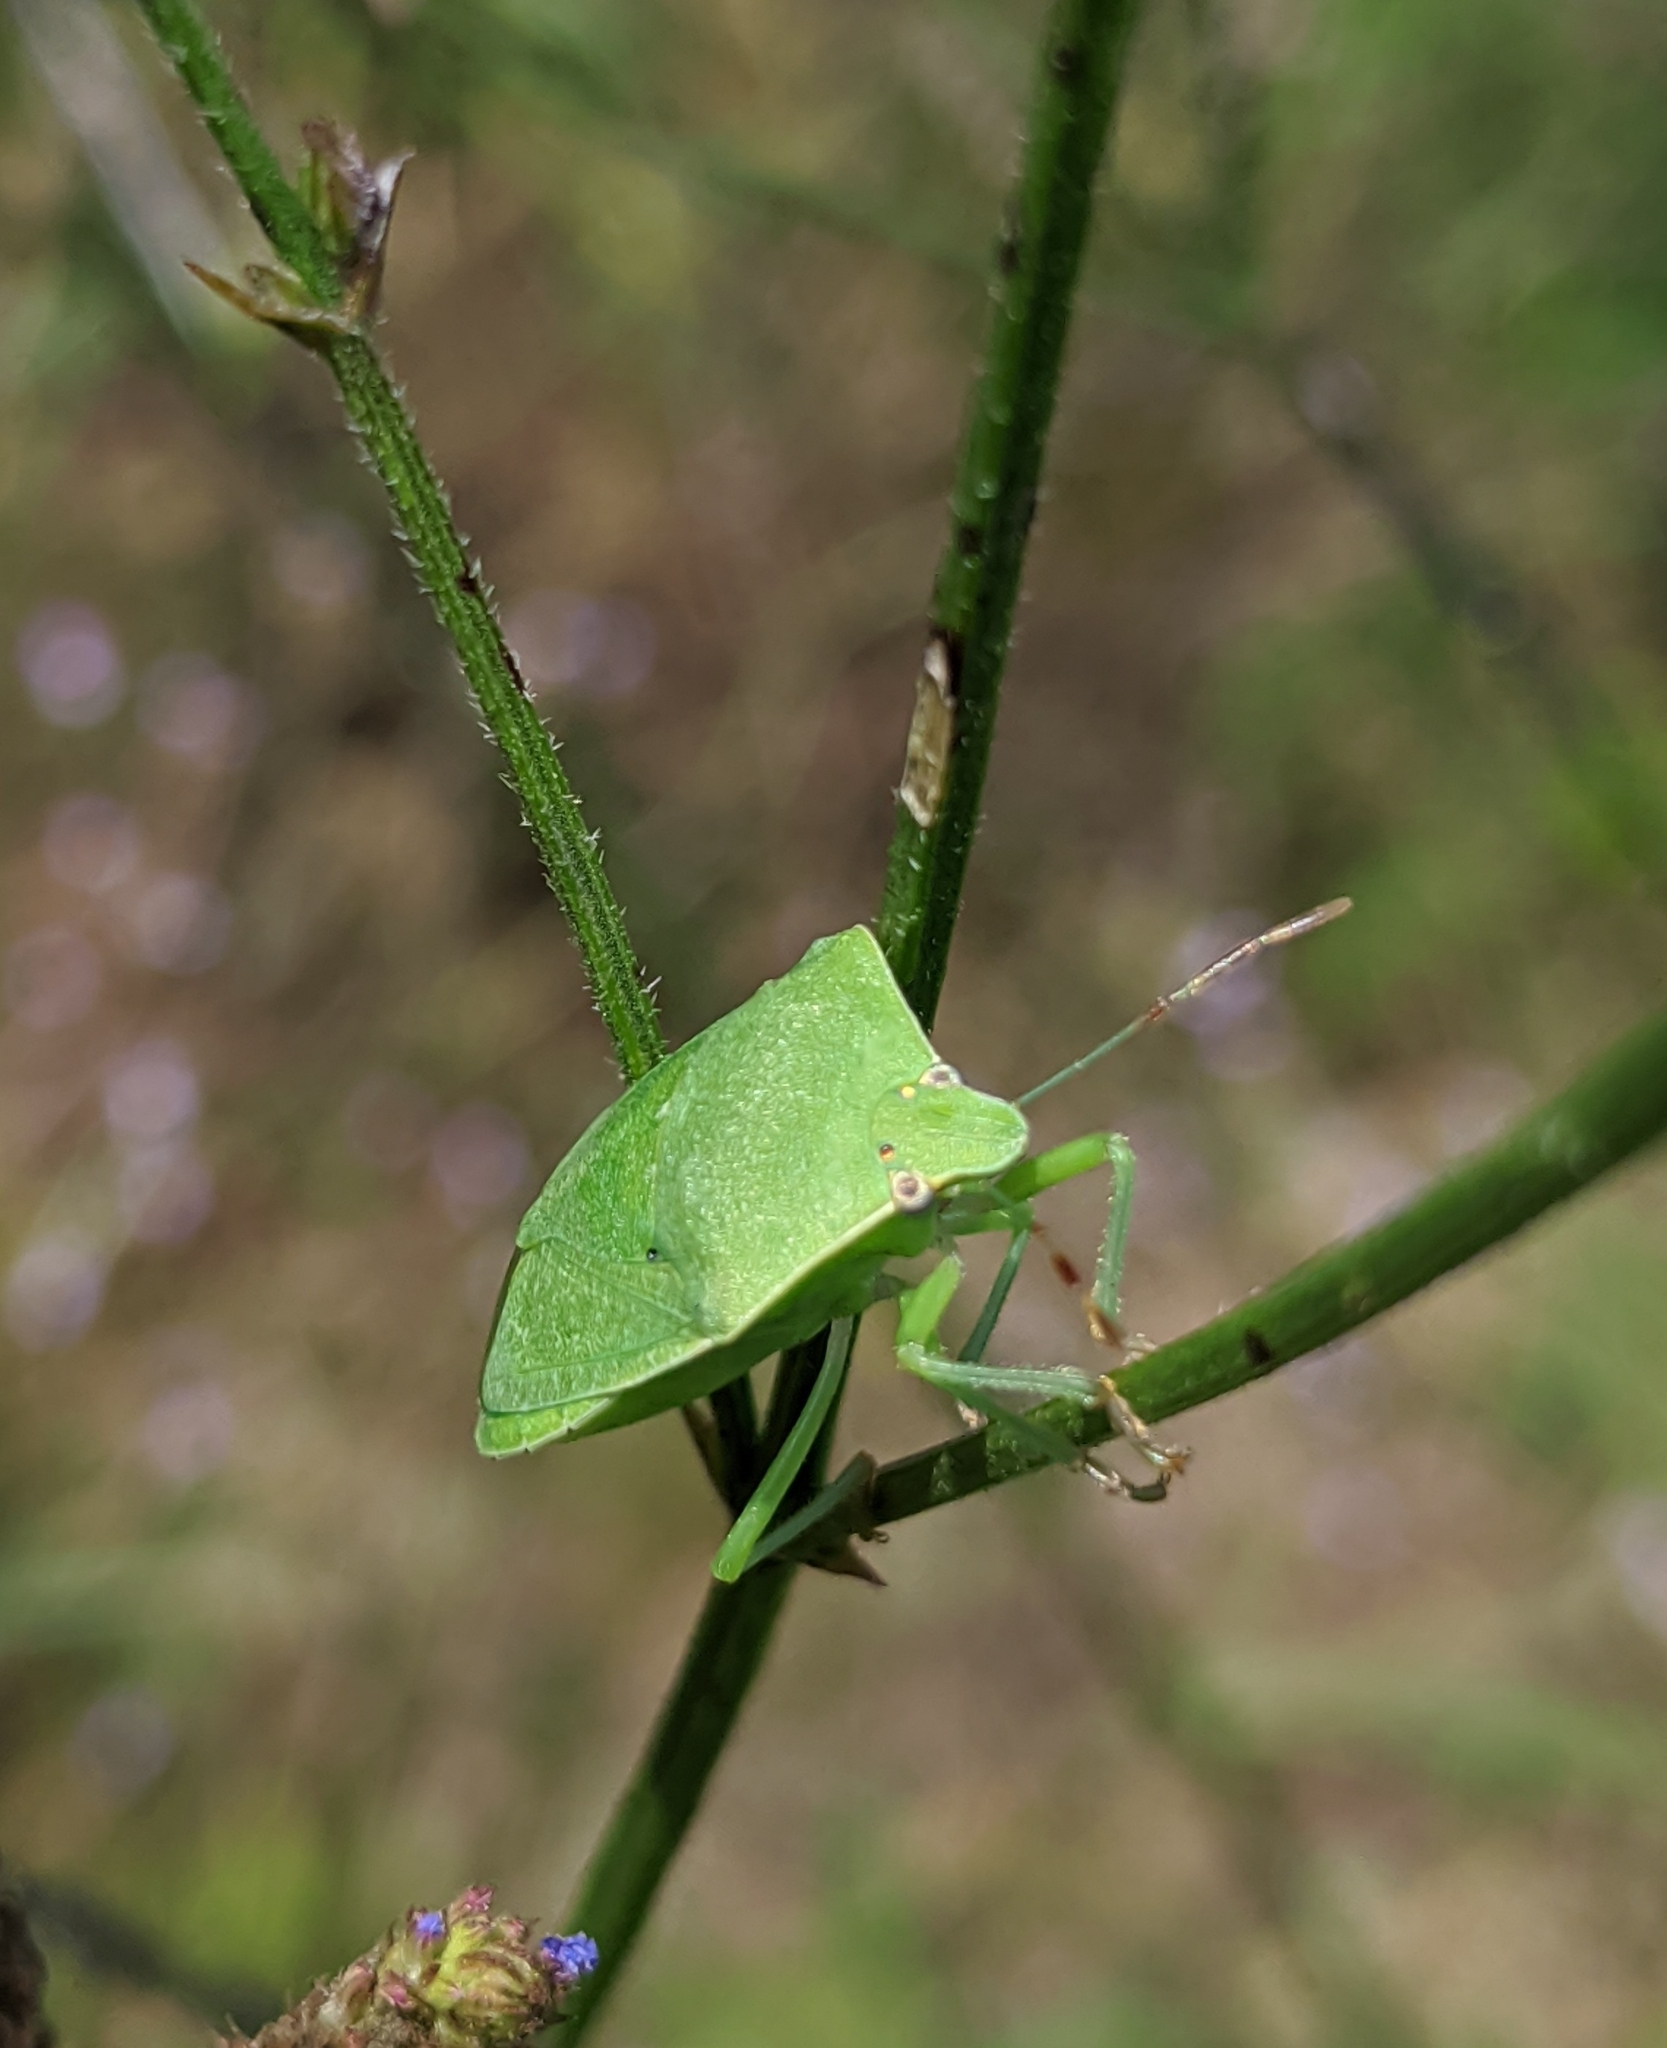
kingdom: Animalia
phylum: Arthropoda
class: Insecta
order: Hemiptera
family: Pentatomidae
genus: Nezara
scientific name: Nezara viridula
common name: Southern green stink bug
